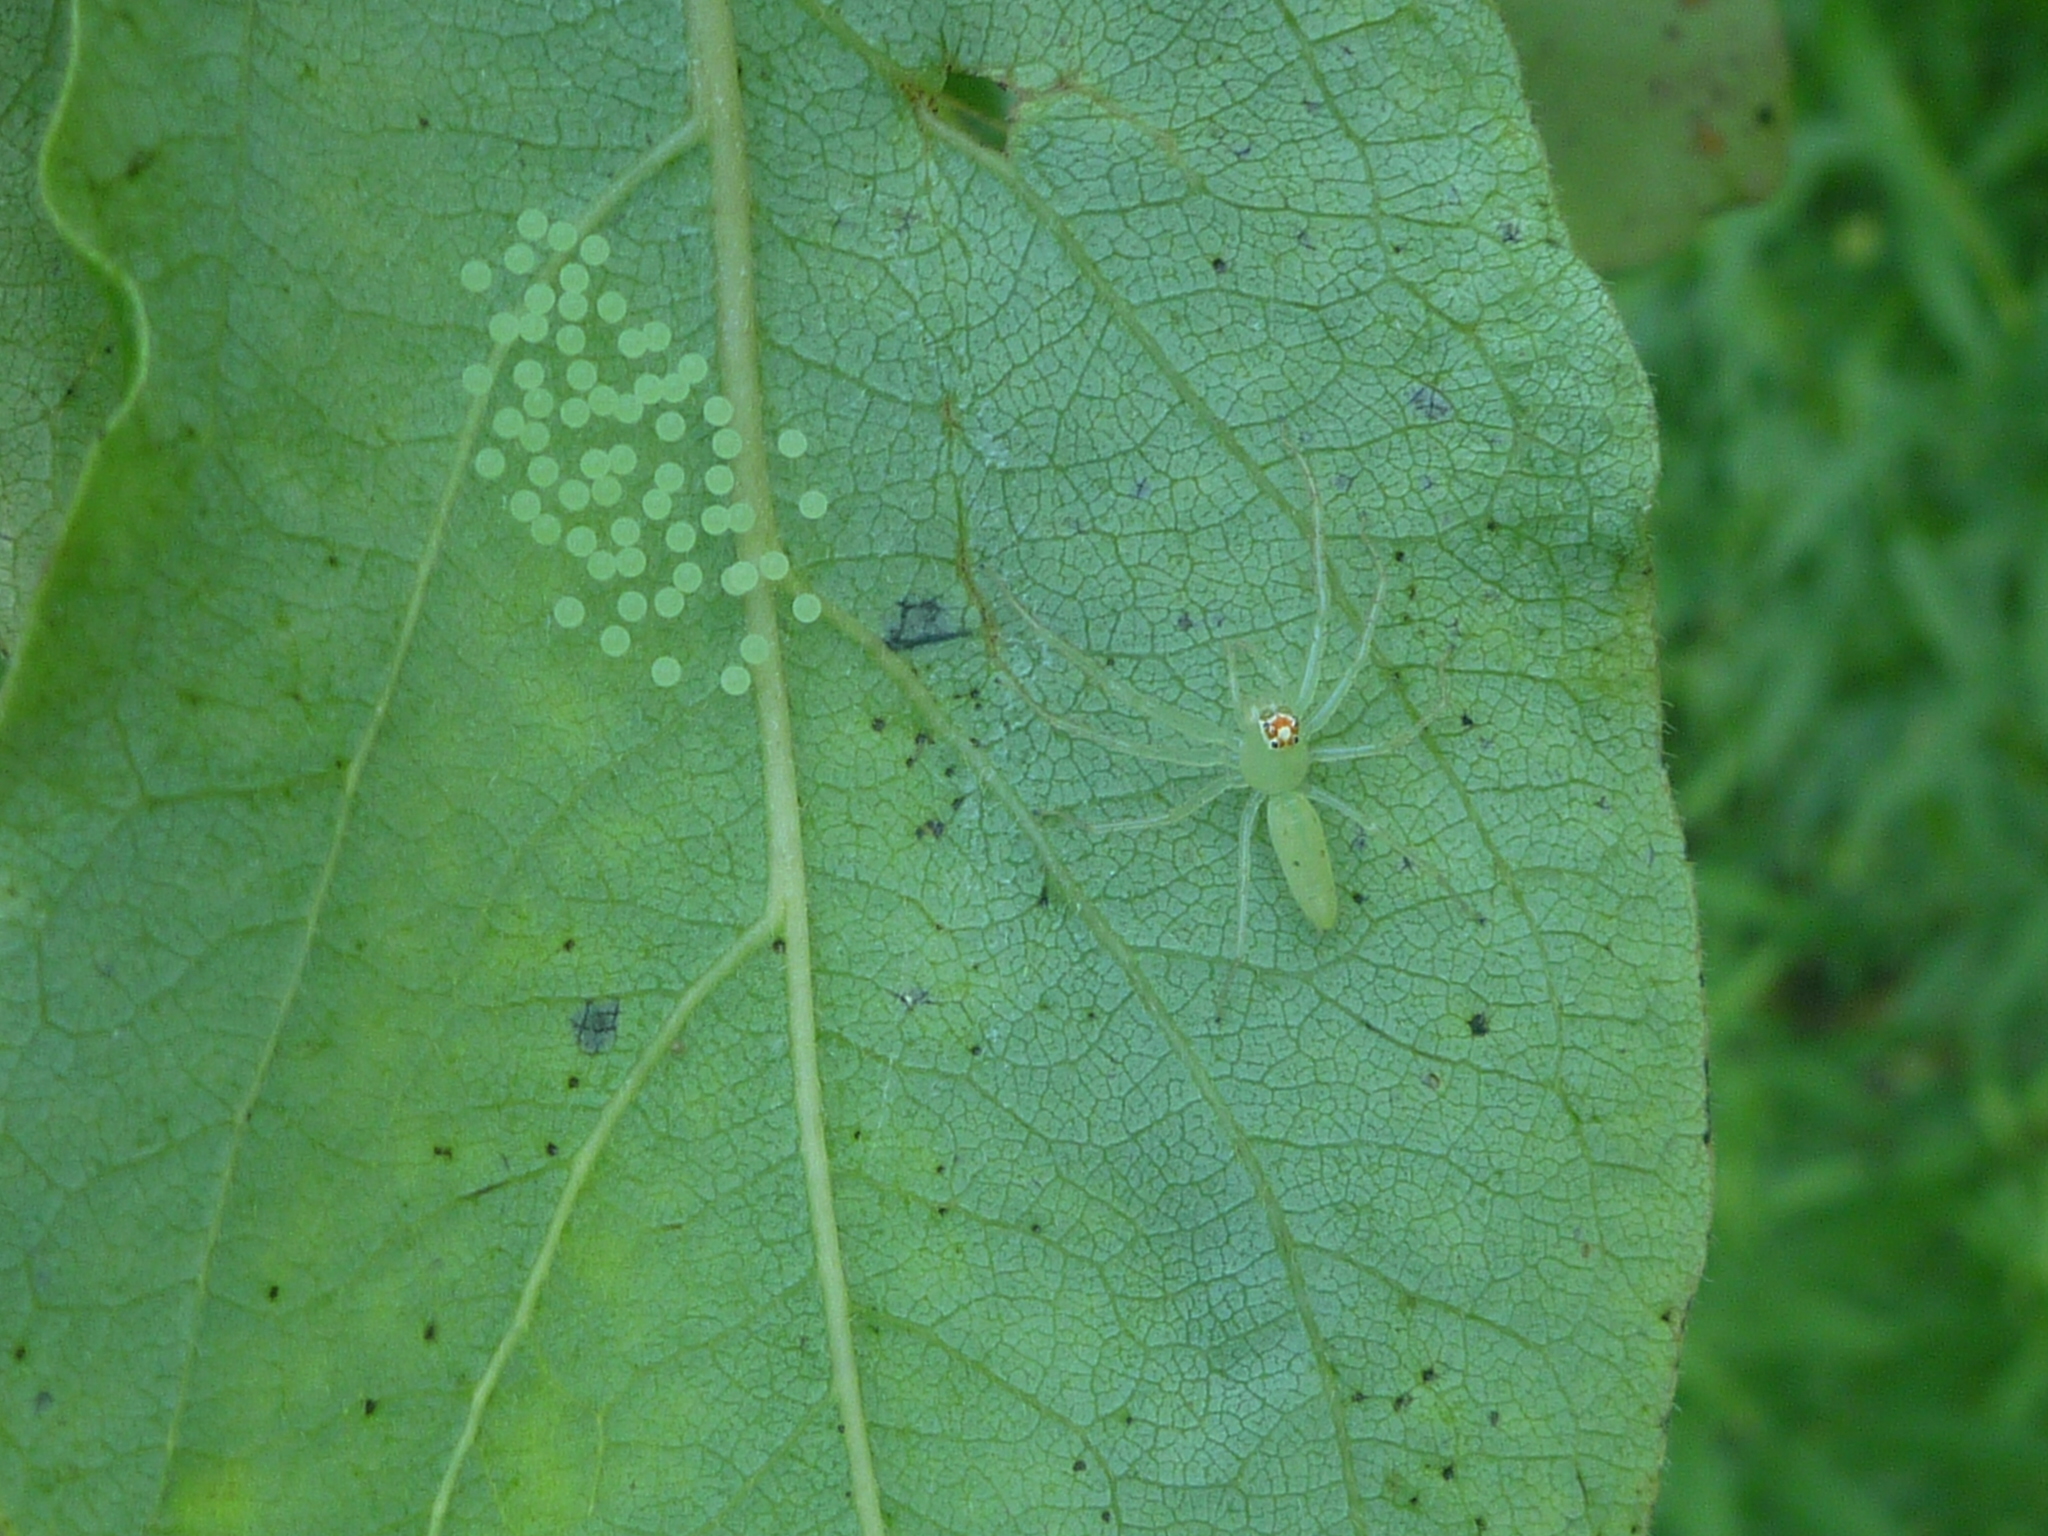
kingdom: Animalia
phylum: Arthropoda
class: Arachnida
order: Araneae
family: Salticidae
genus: Lyssomanes
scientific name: Lyssomanes viridis
